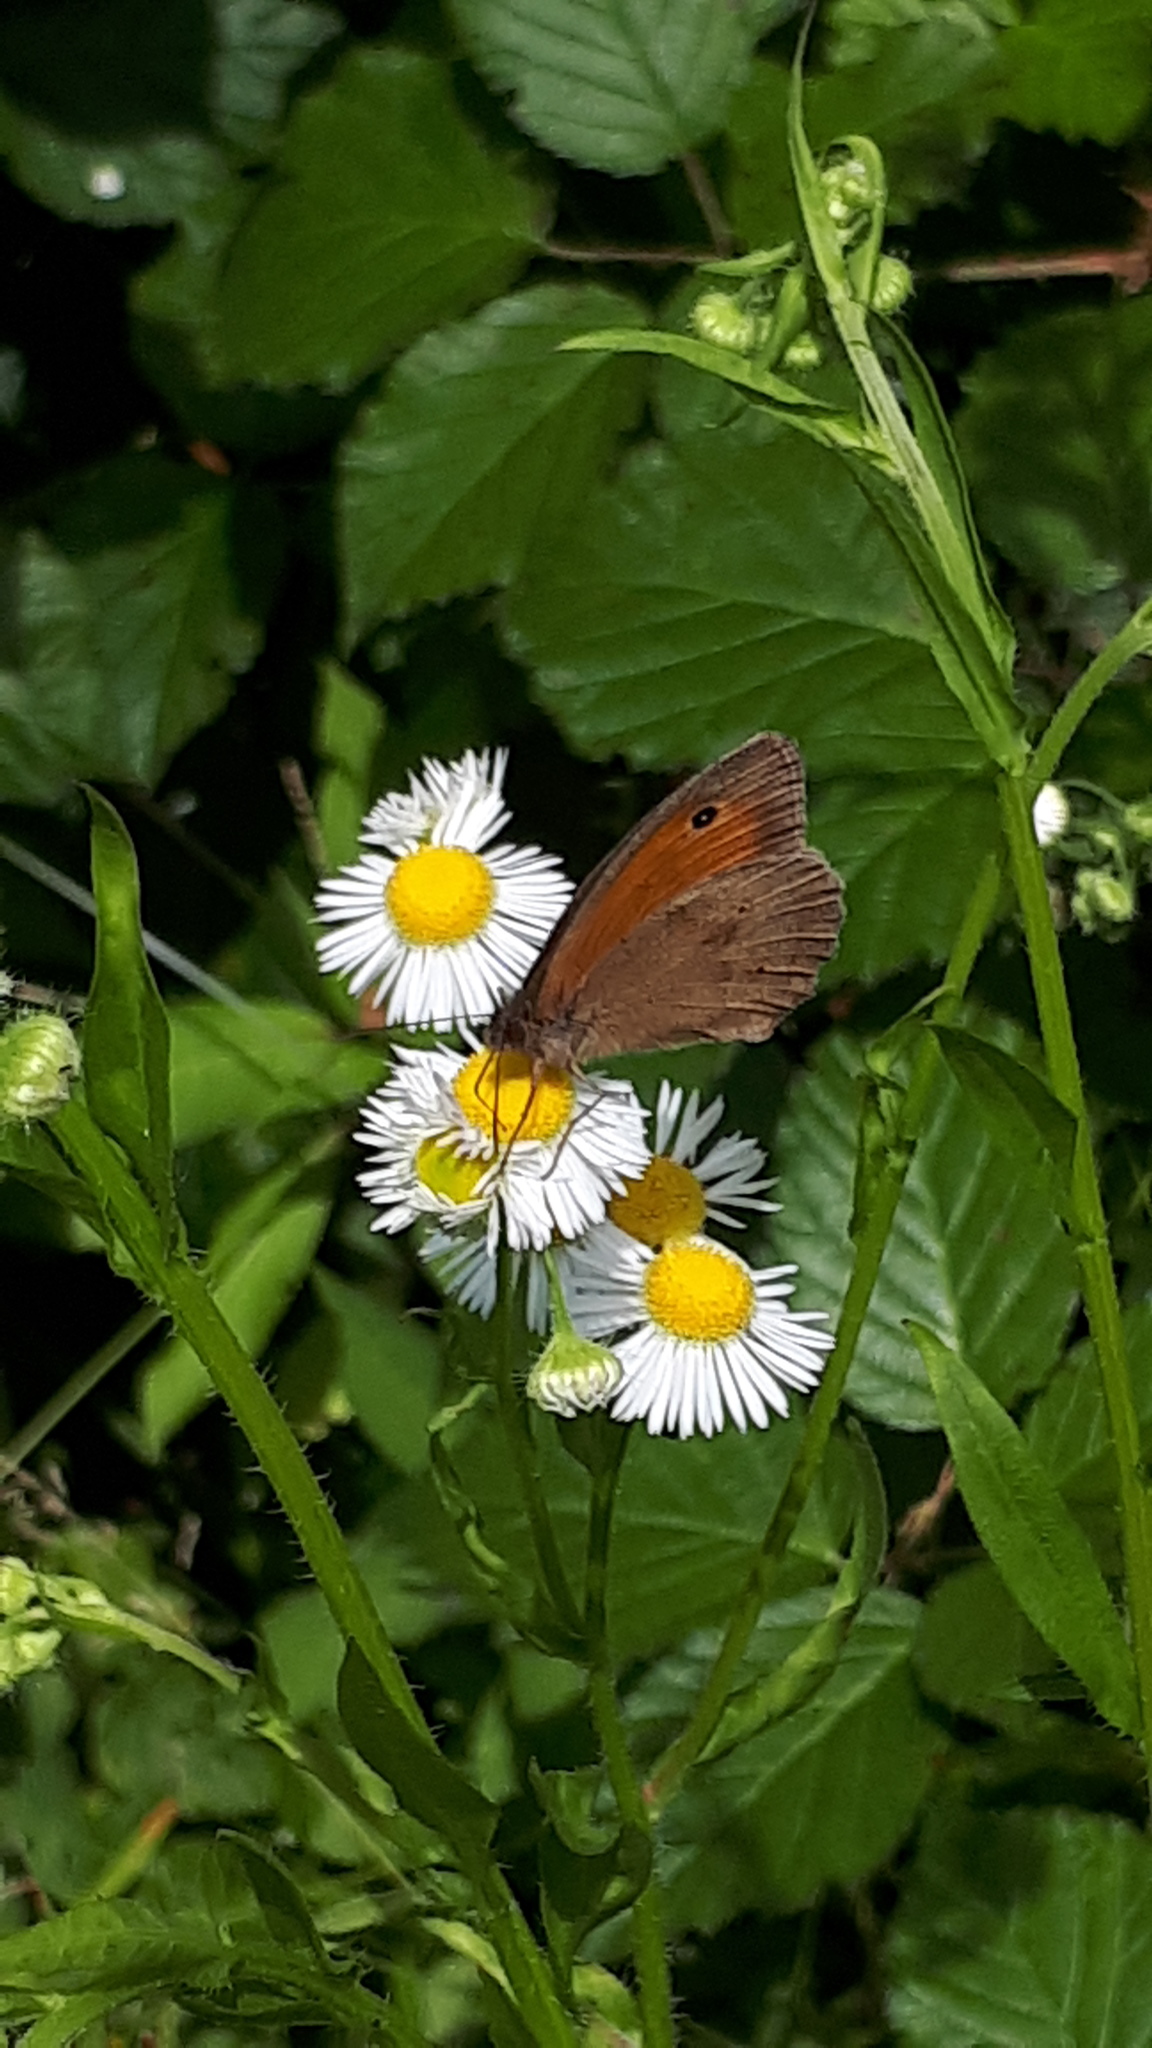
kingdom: Animalia
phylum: Arthropoda
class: Insecta
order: Lepidoptera
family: Nymphalidae
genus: Maniola
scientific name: Maniola jurtina
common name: Meadow brown
